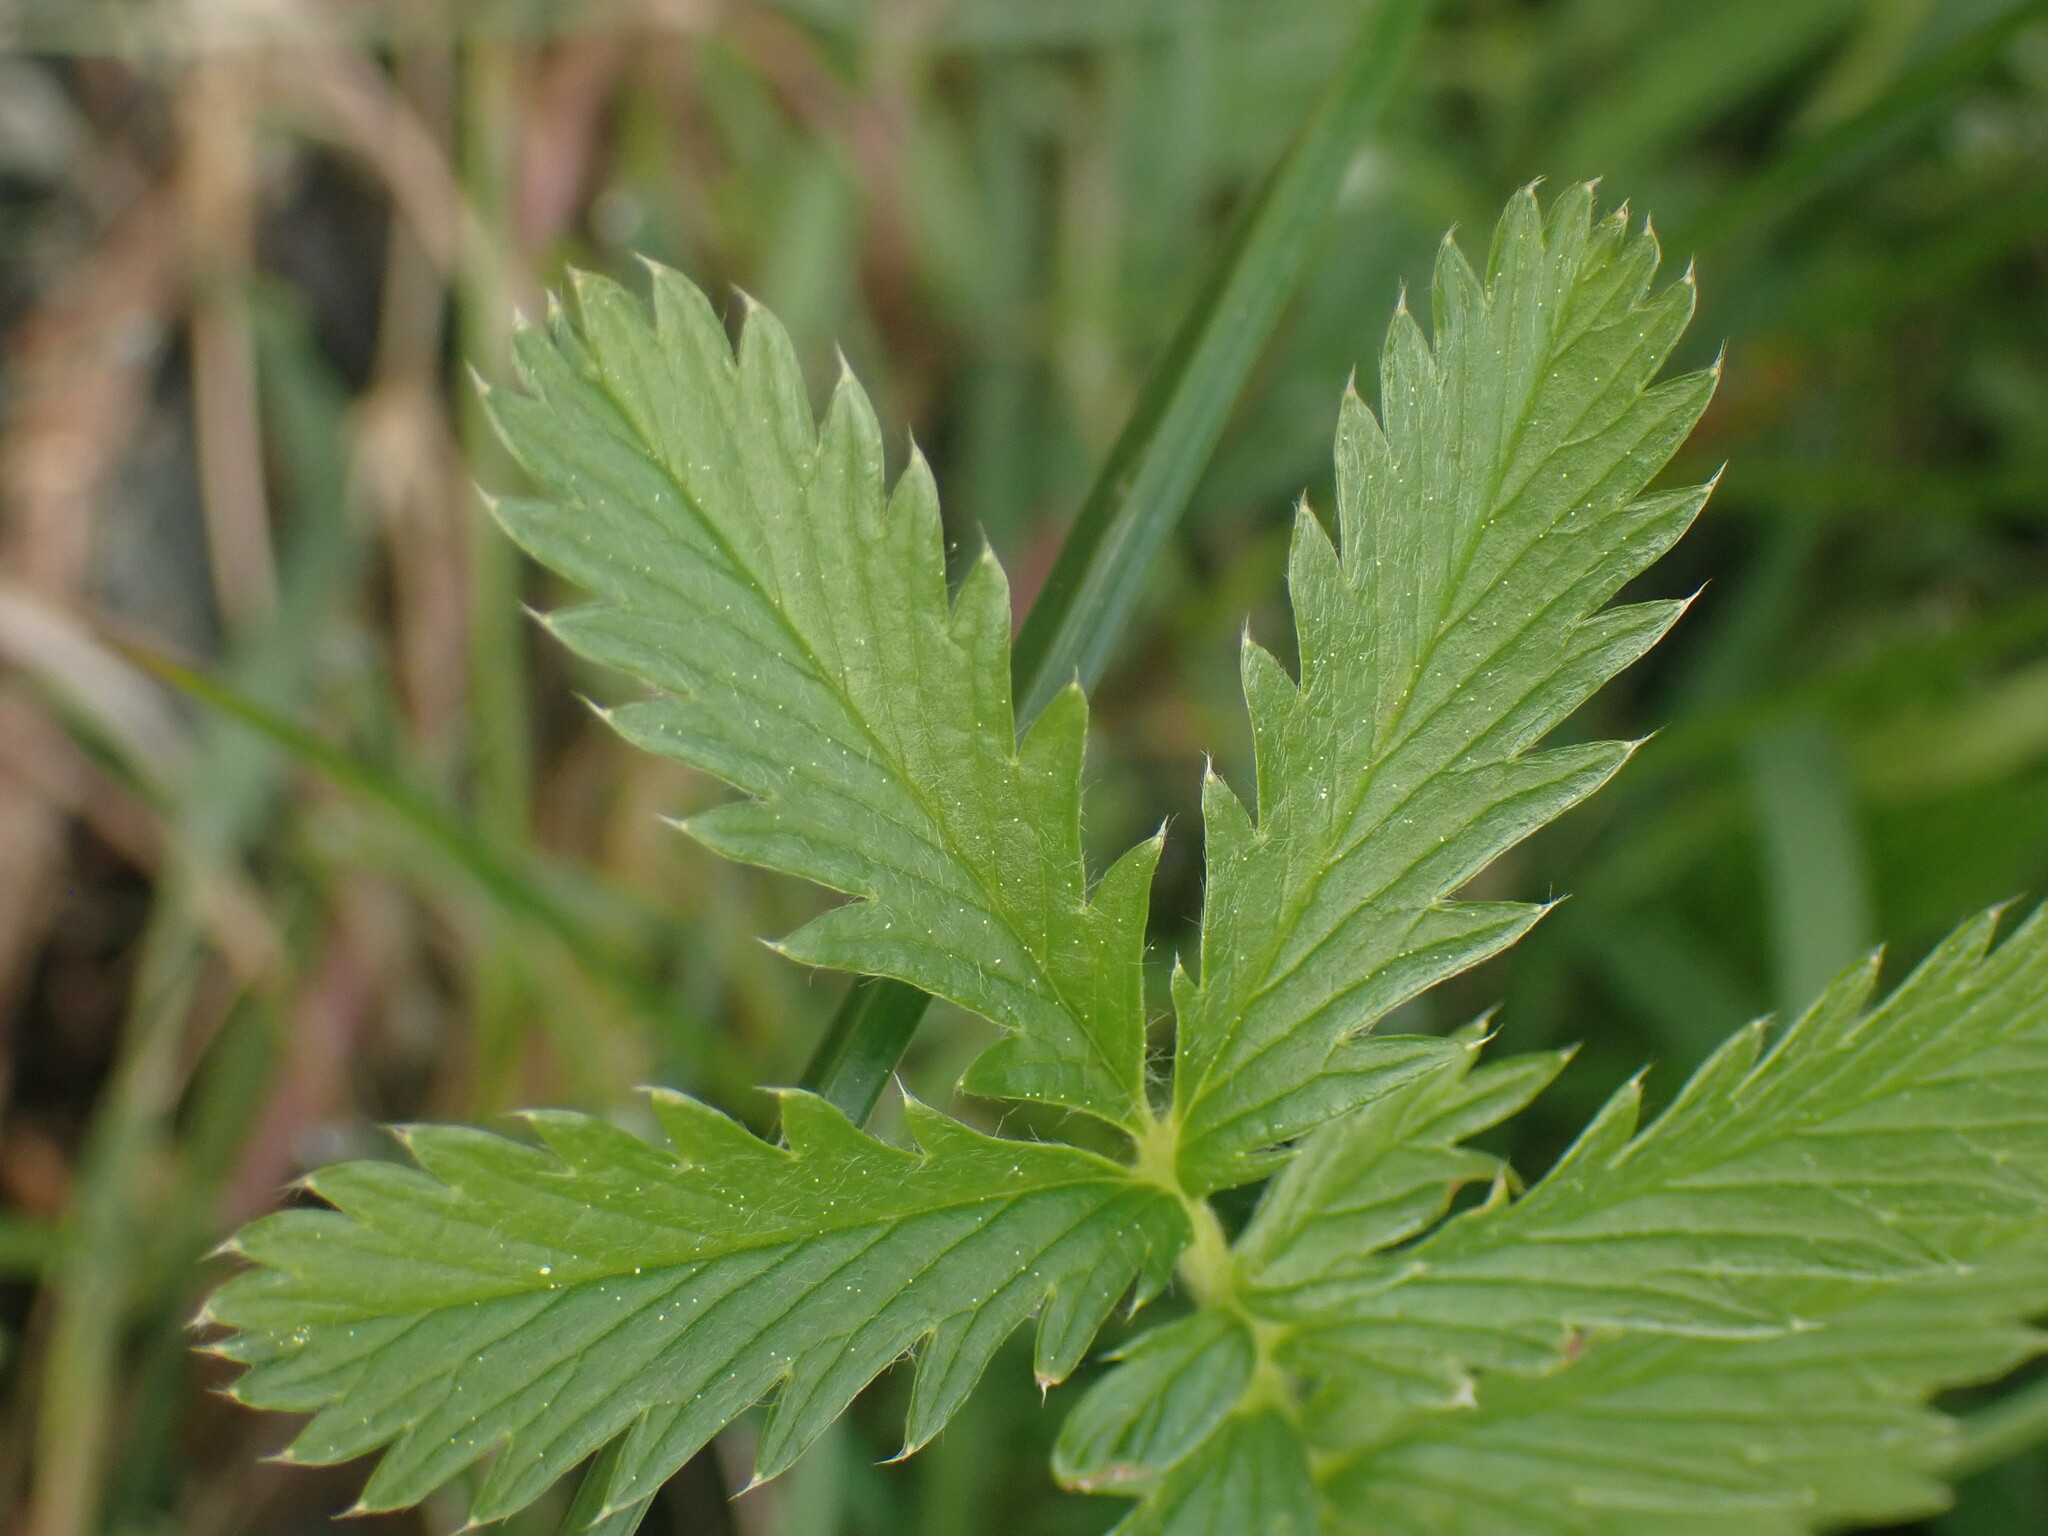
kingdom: Plantae
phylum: Tracheophyta
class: Magnoliopsida
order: Rosales
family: Rosaceae
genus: Argentina
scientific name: Argentina anserina
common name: Common silverweed
